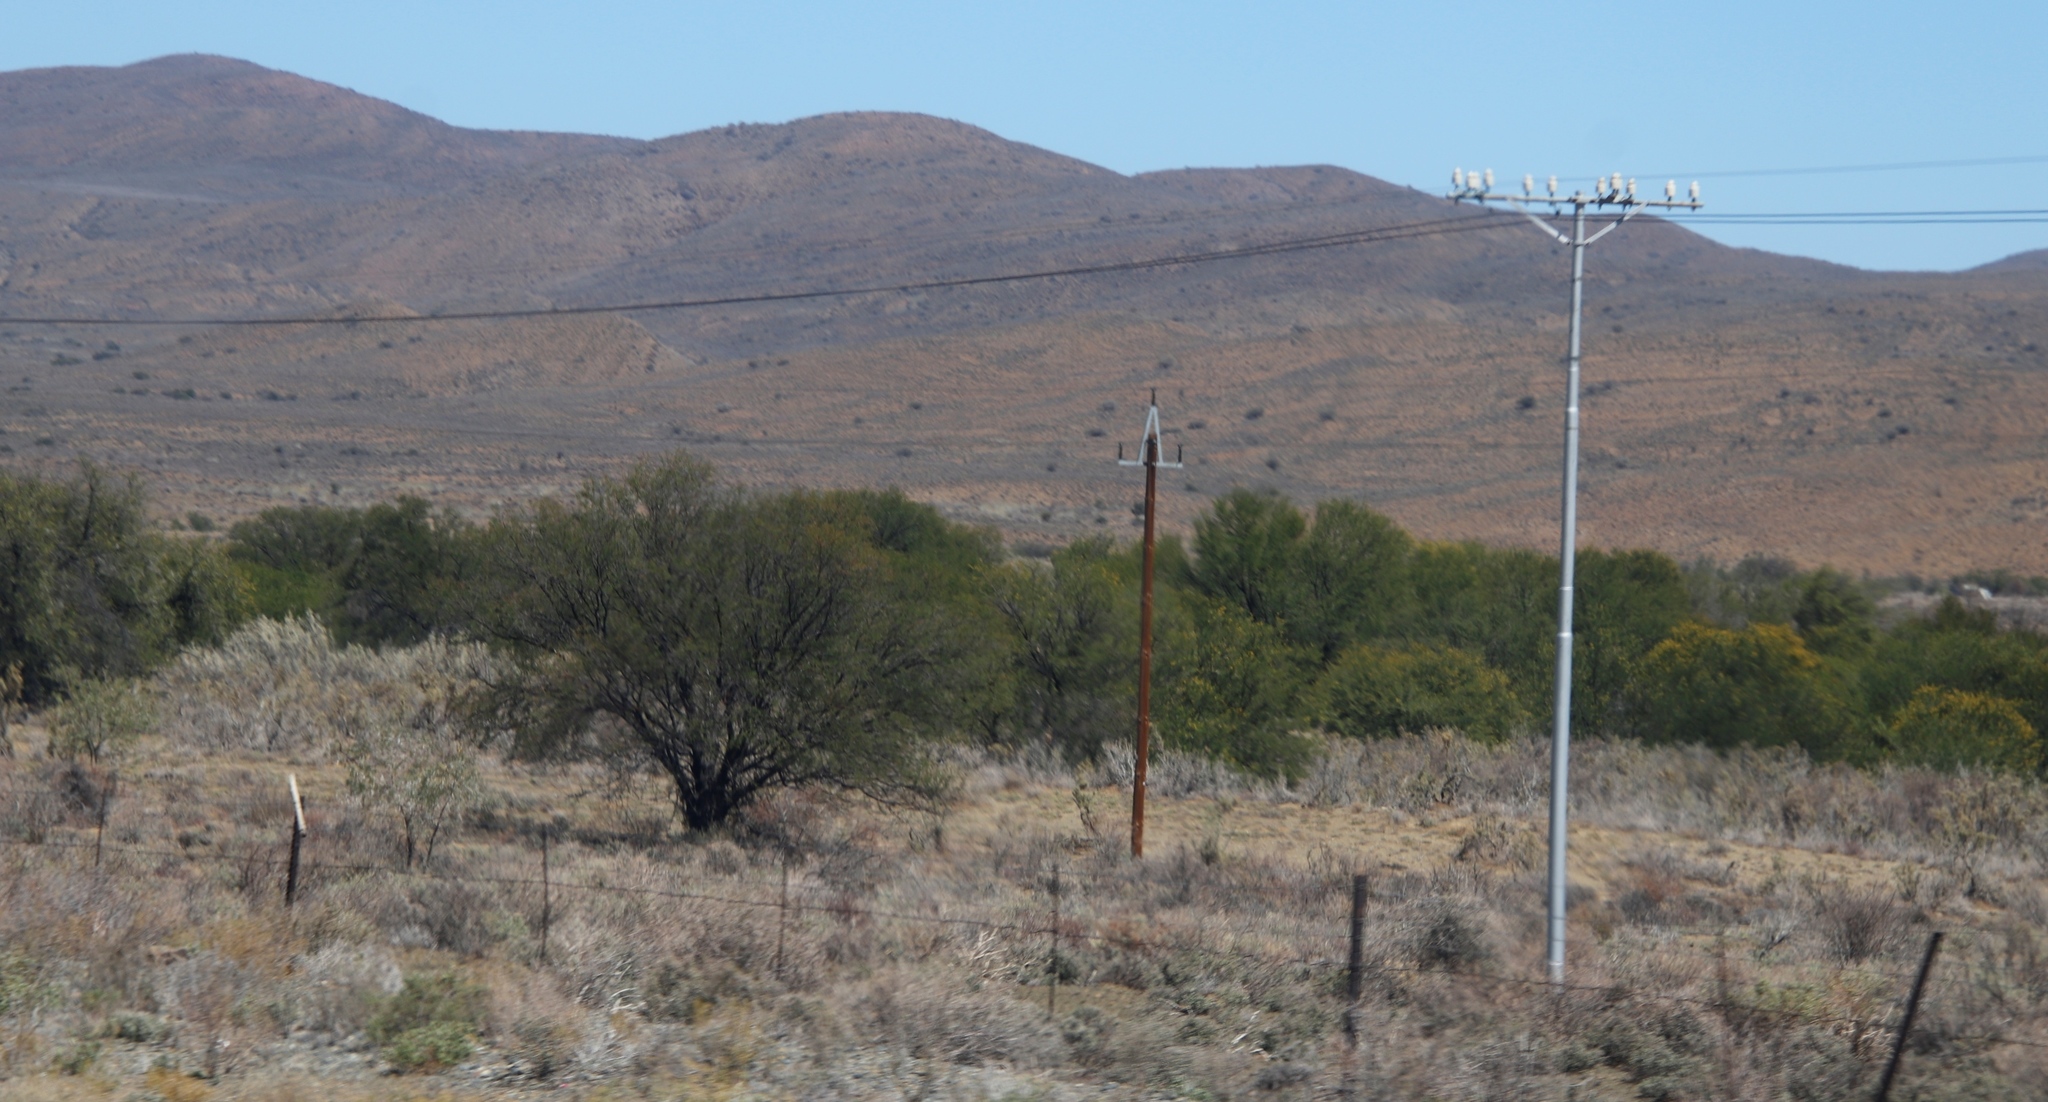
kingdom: Plantae
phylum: Tracheophyta
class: Magnoliopsida
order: Fabales
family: Fabaceae
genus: Vachellia
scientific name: Vachellia karroo
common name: Sweet thorn
